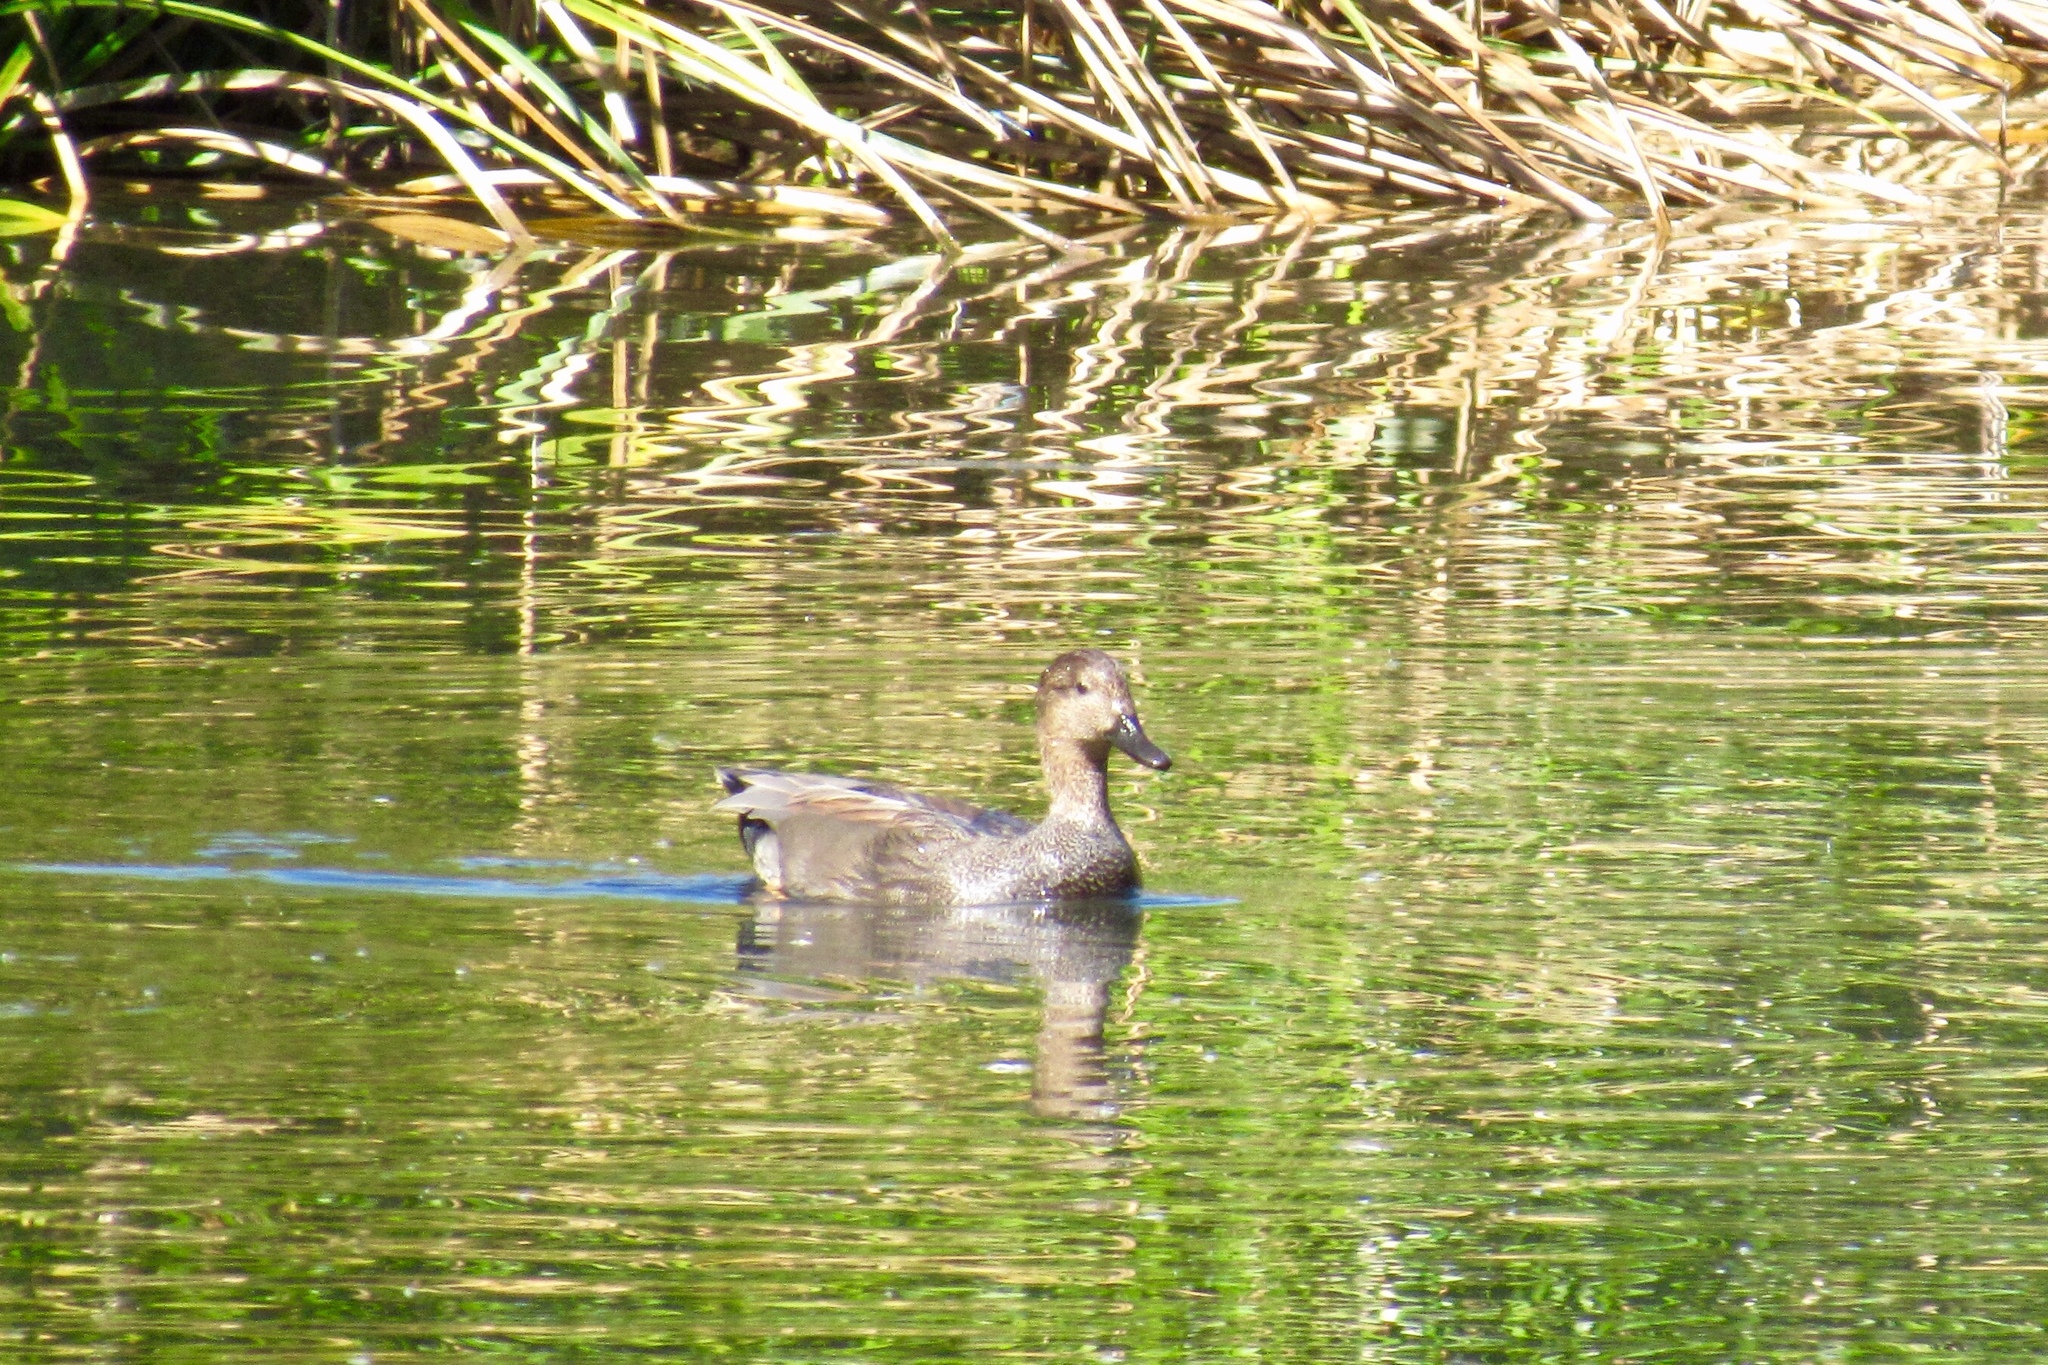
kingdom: Animalia
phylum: Chordata
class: Aves
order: Anseriformes
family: Anatidae
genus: Mareca
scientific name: Mareca strepera
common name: Gadwall
